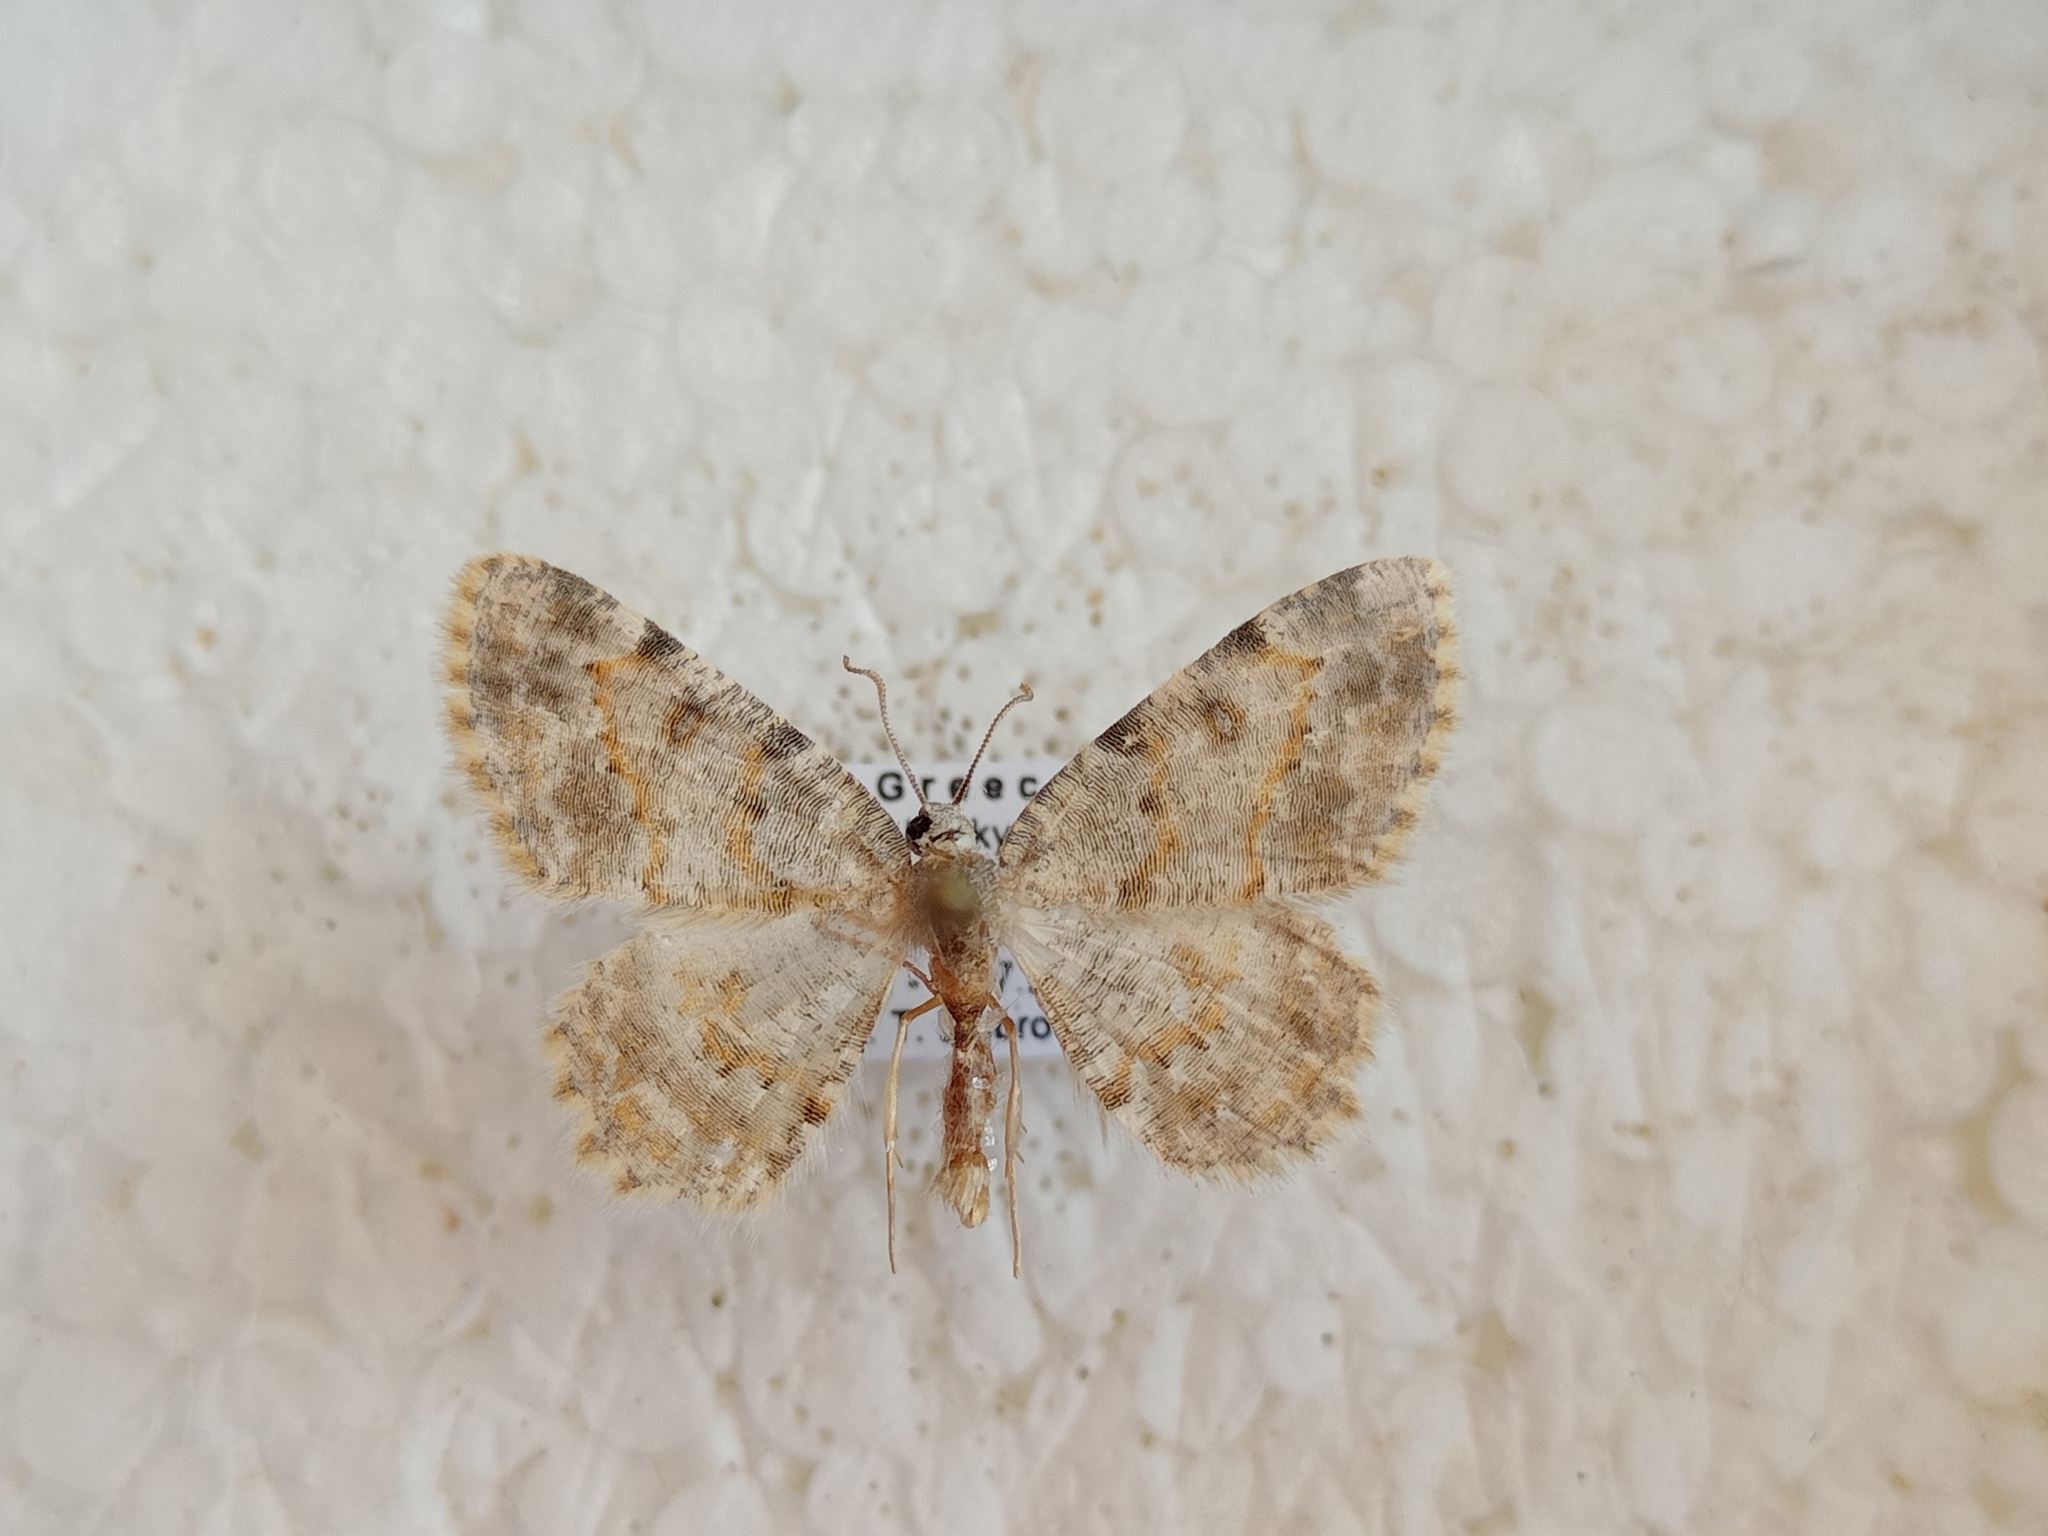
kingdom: Animalia
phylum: Arthropoda
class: Insecta
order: Lepidoptera
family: Geometridae
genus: Charissa
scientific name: Charissa variegata
